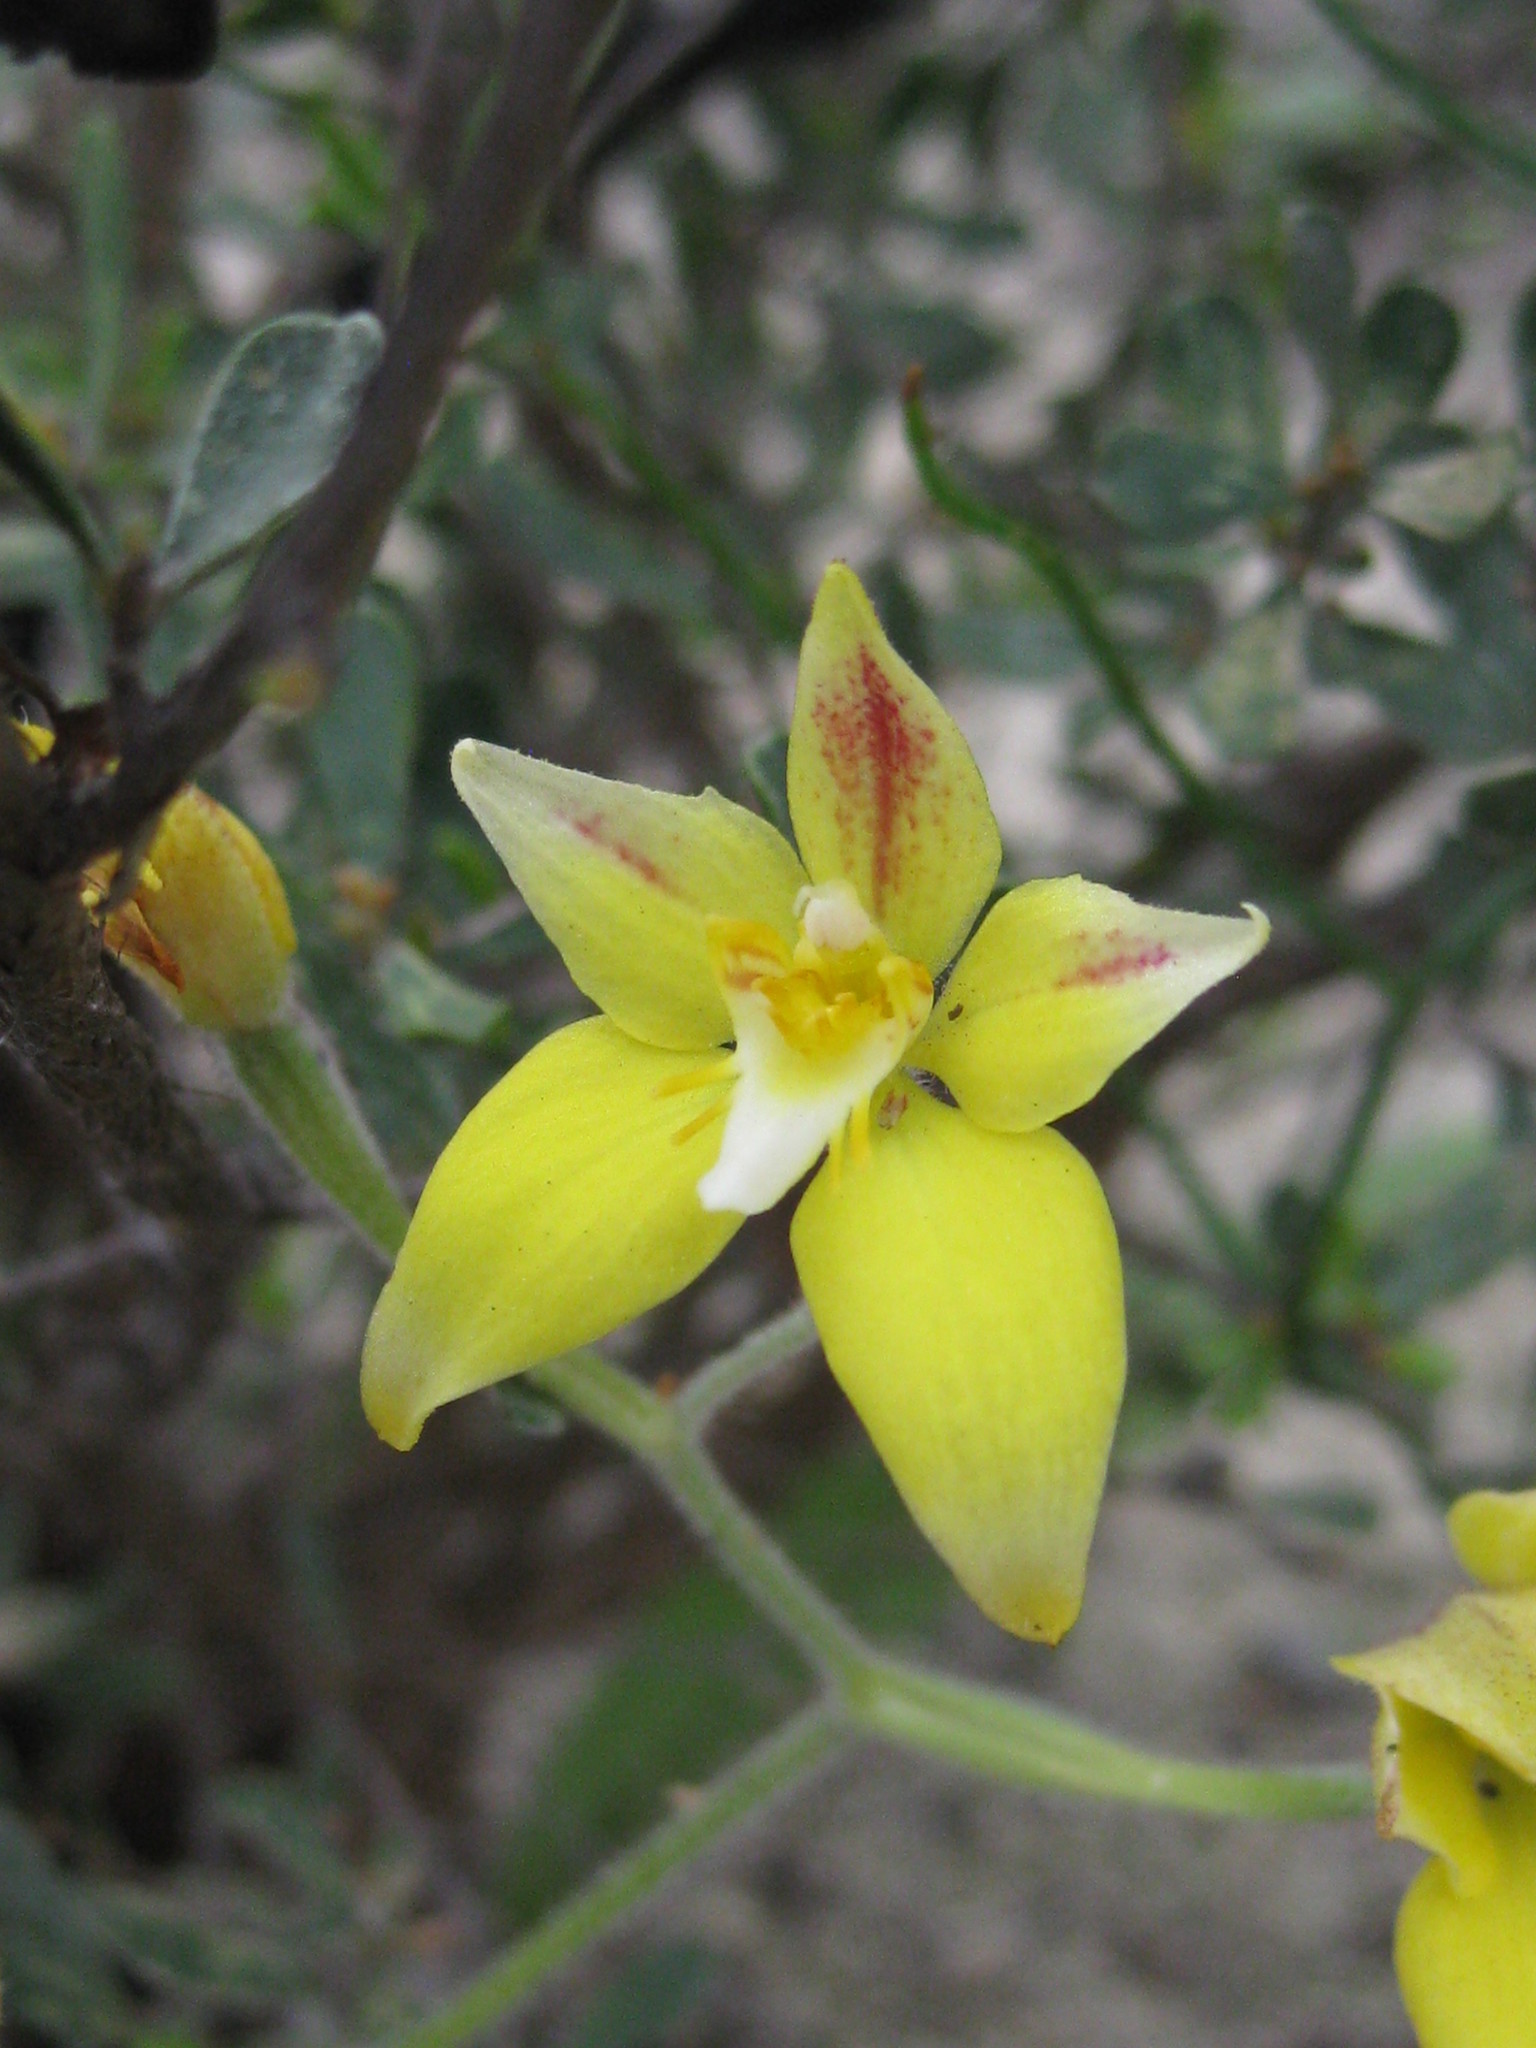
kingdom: Plantae
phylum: Tracheophyta
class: Liliopsida
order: Asparagales
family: Orchidaceae
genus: Caladenia
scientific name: Caladenia flava
